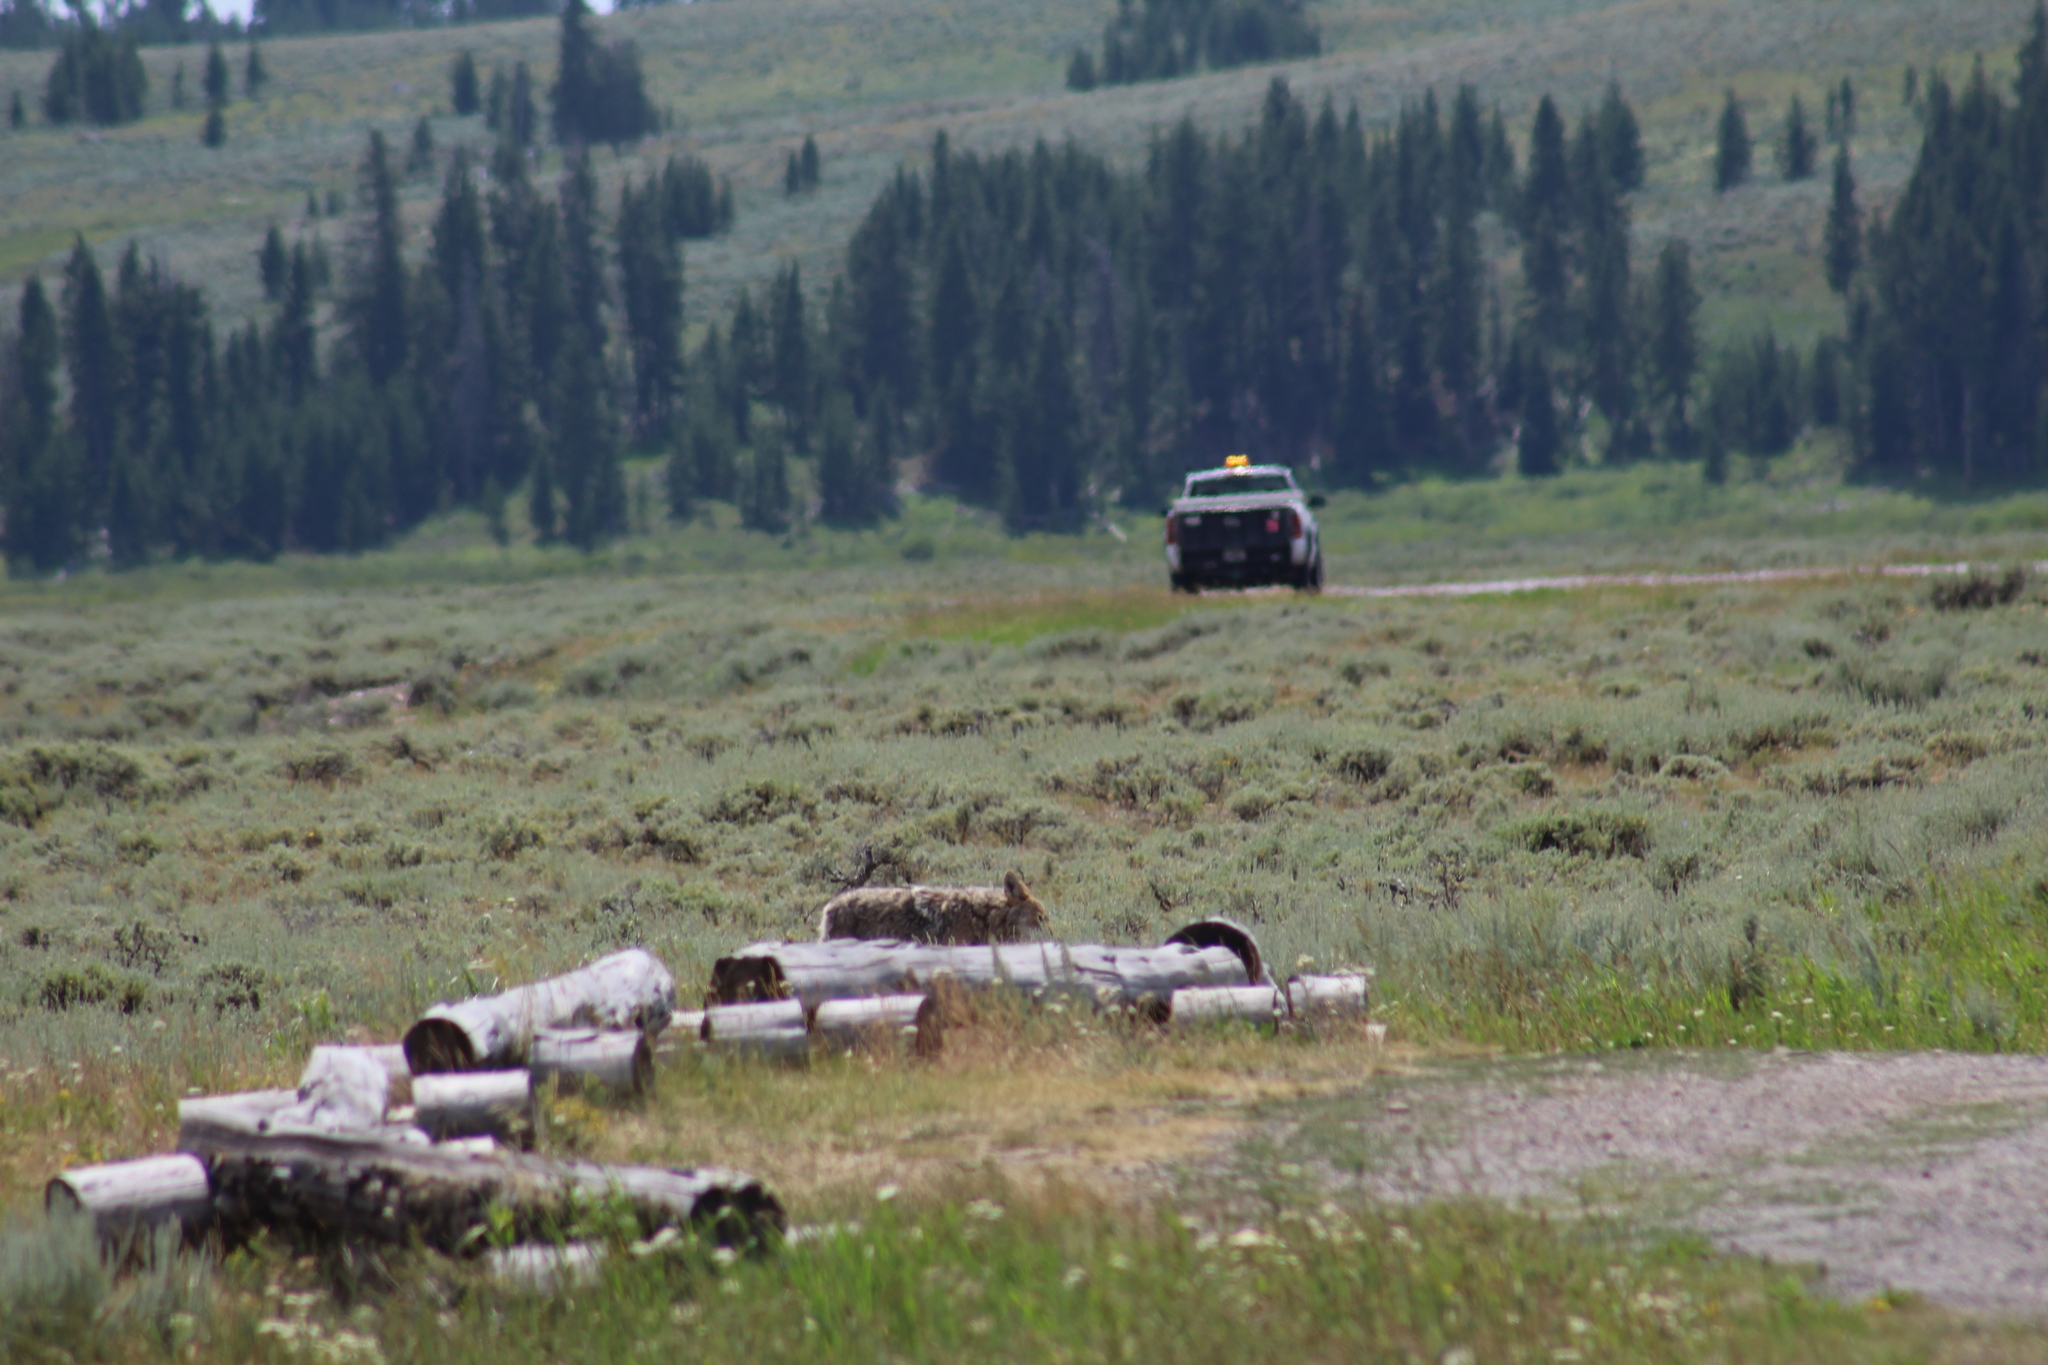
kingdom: Animalia
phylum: Chordata
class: Mammalia
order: Carnivora
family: Canidae
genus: Canis
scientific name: Canis latrans
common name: Coyote
